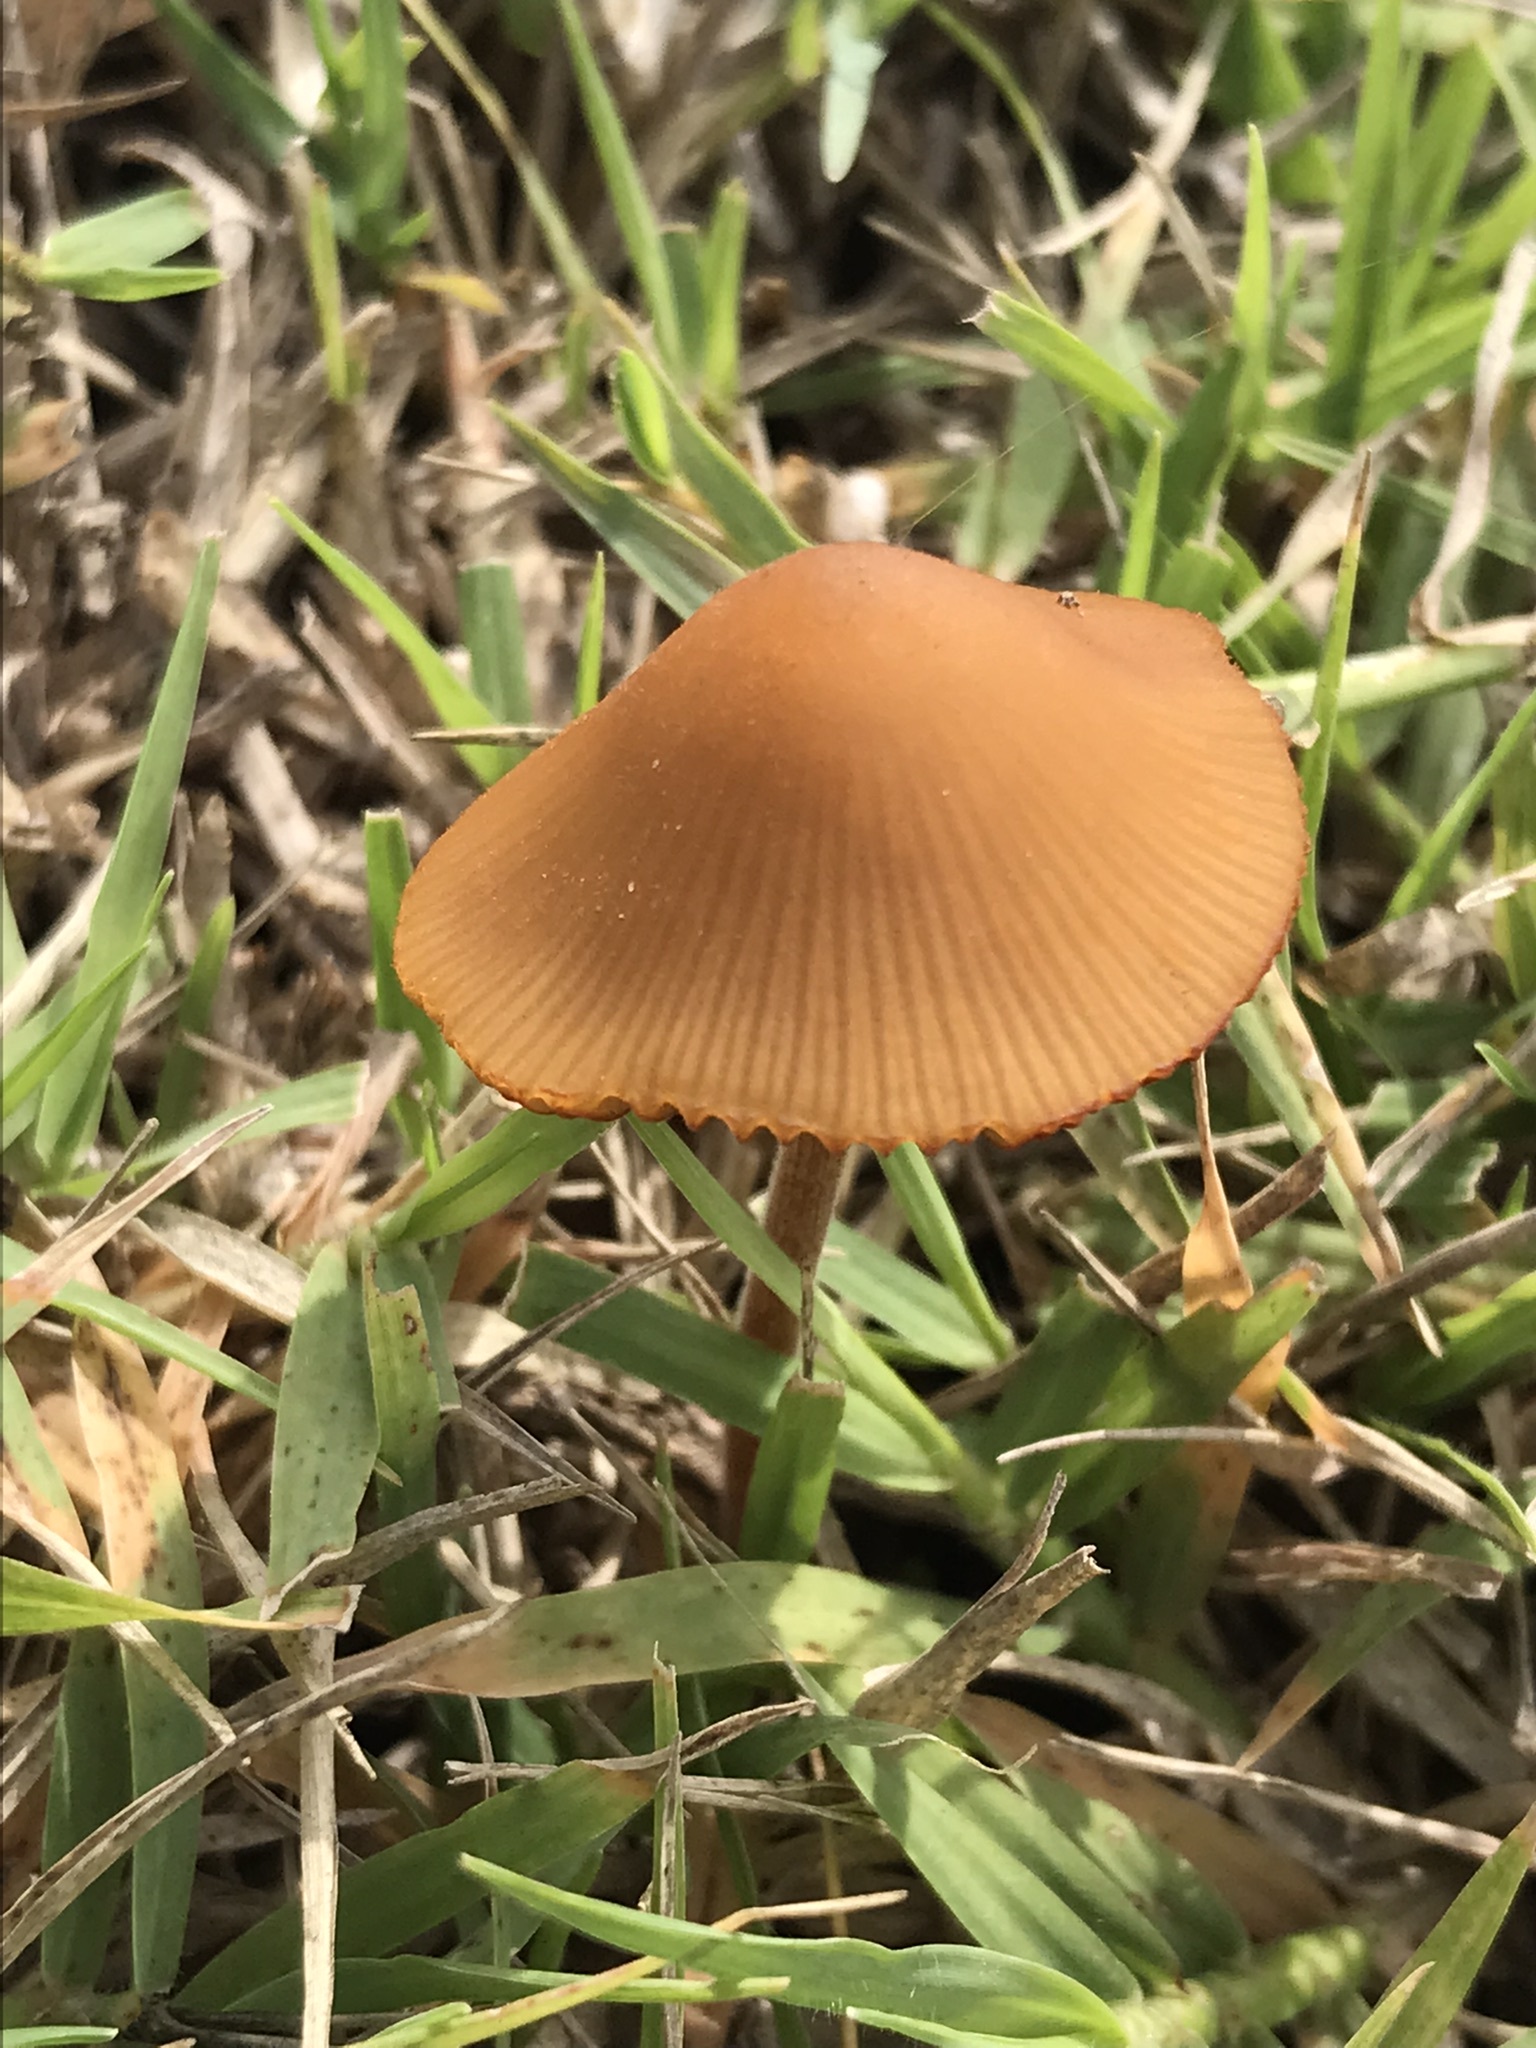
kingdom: Fungi
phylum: Basidiomycota
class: Agaricomycetes
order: Agaricales
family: Bolbitiaceae
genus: Conocybe
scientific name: Conocybe tenera
